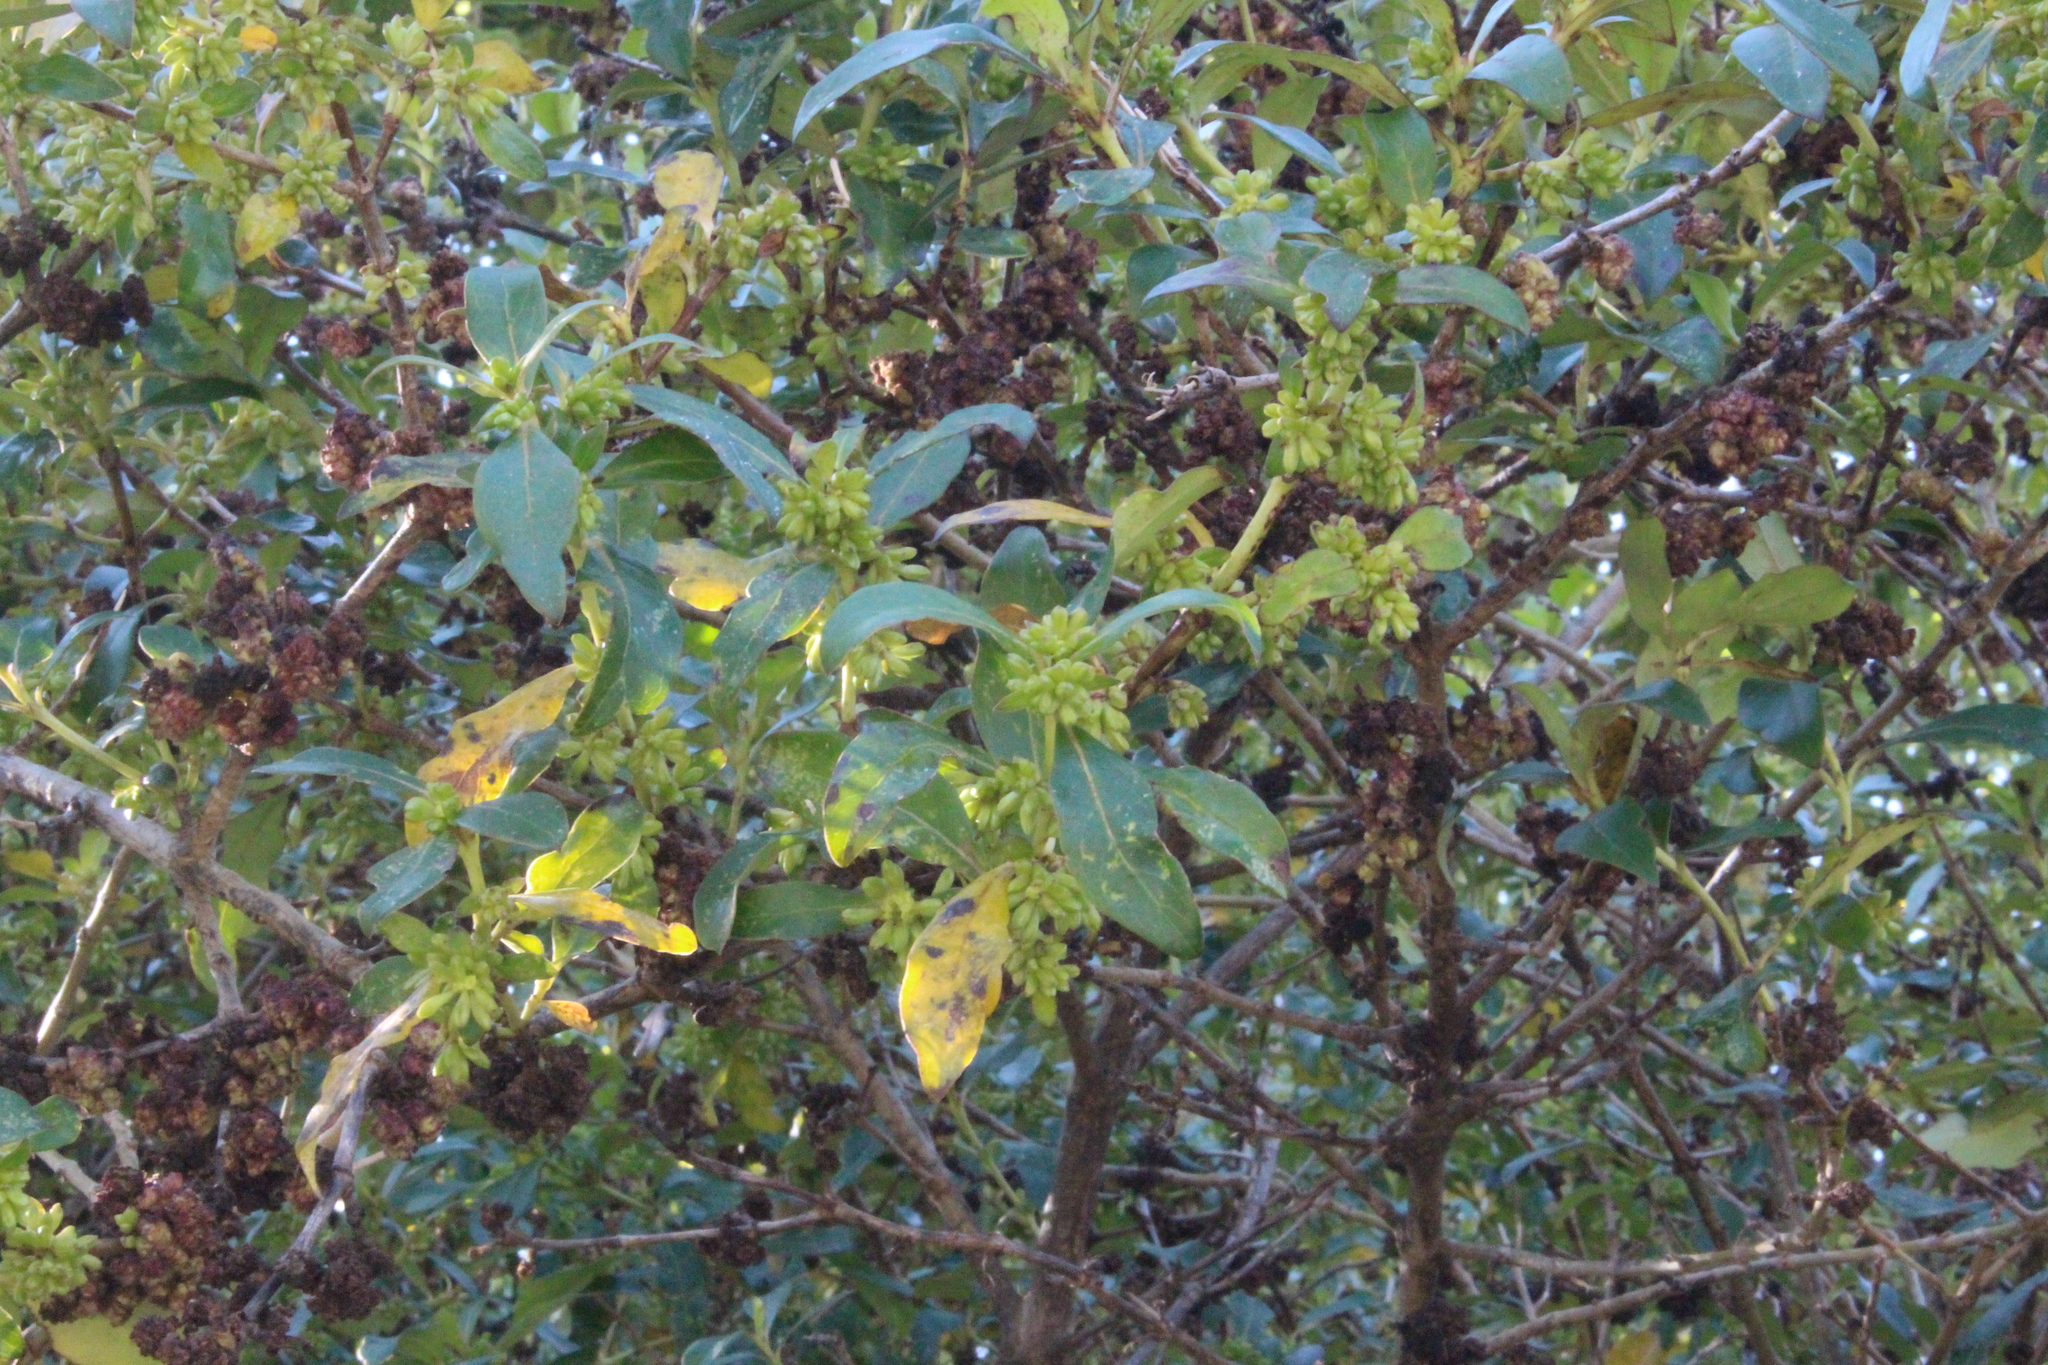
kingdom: Plantae
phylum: Tracheophyta
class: Magnoliopsida
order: Gentianales
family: Rubiaceae
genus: Coprosma
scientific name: Coprosma robusta
